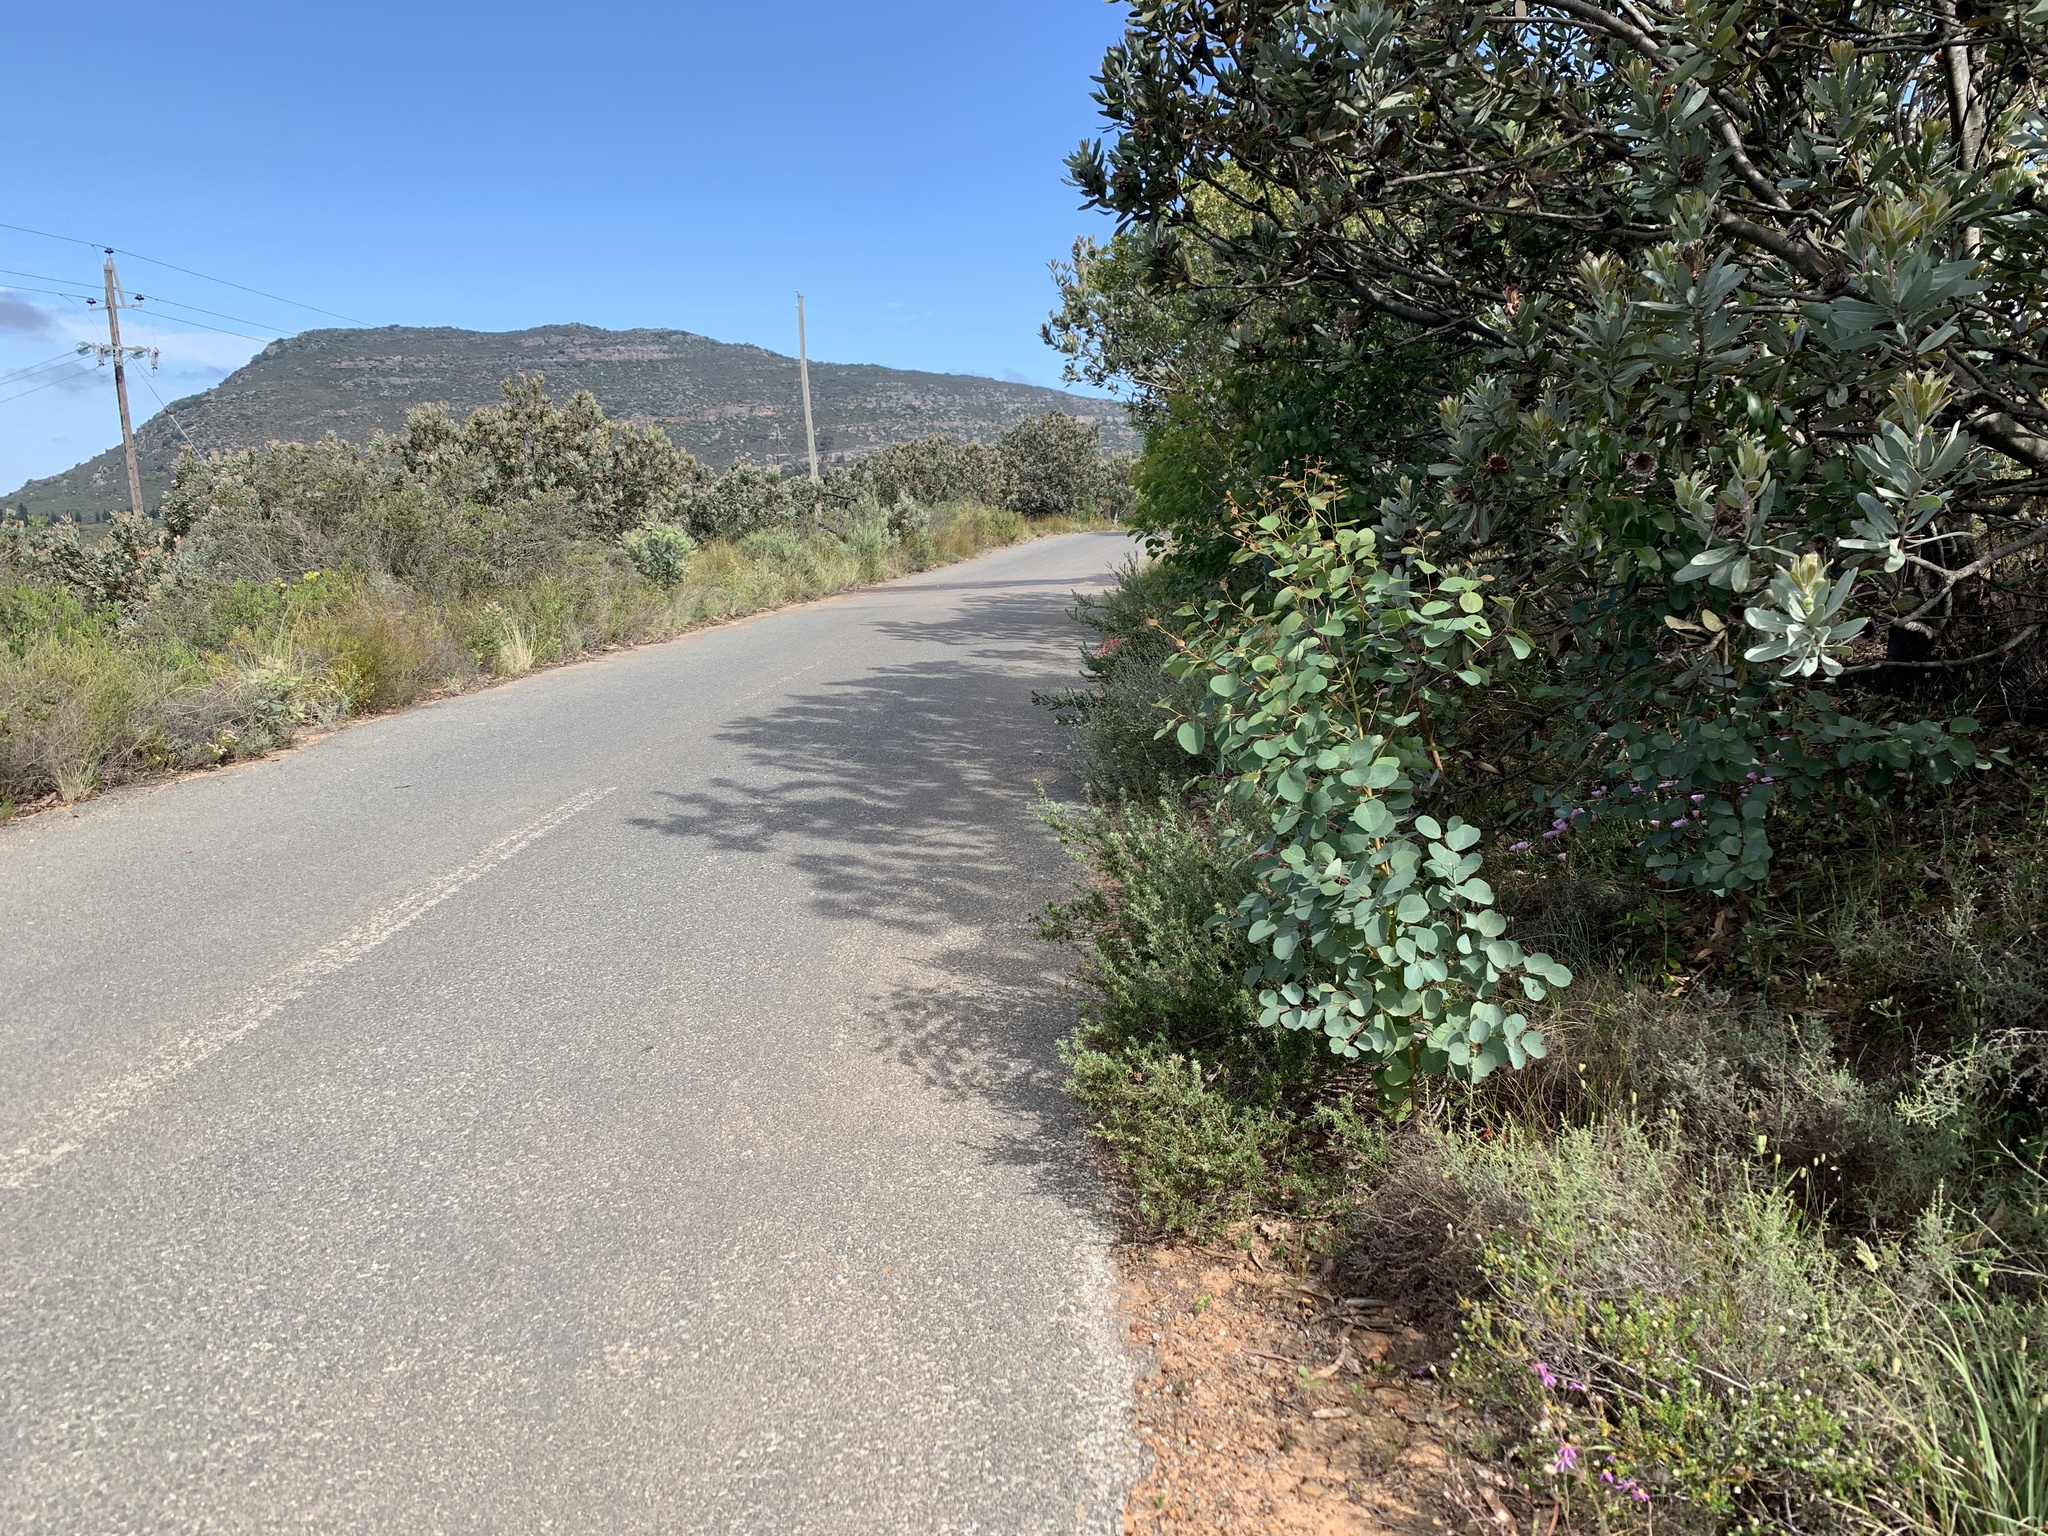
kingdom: Plantae
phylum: Tracheophyta
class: Magnoliopsida
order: Myrtales
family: Myrtaceae
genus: Eucalyptus
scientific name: Eucalyptus cladocalyx
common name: Sugargum
